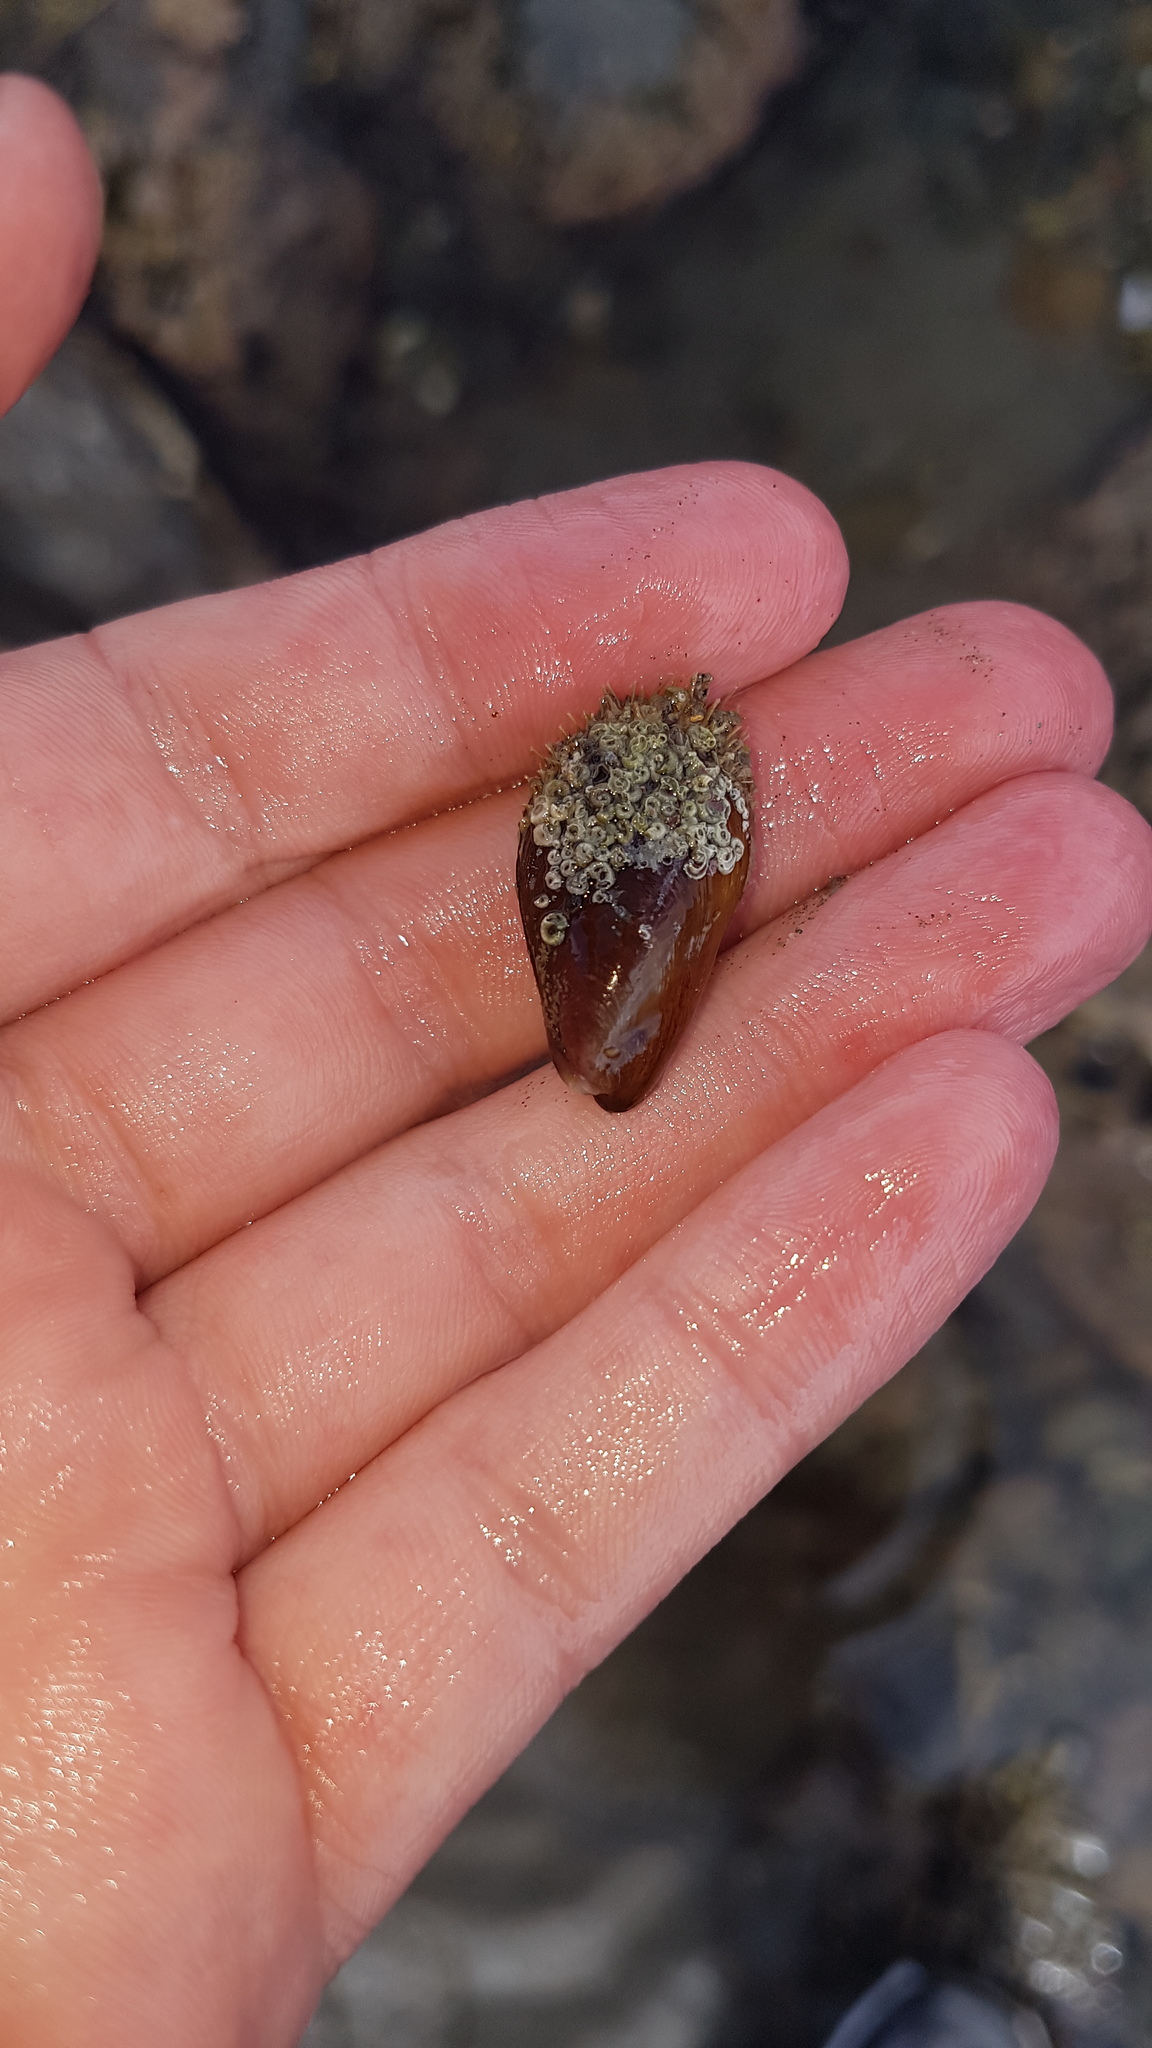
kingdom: Animalia
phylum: Mollusca
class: Bivalvia
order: Mytilida
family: Mytilidae
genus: Modiolus
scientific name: Modiolus areolatus
